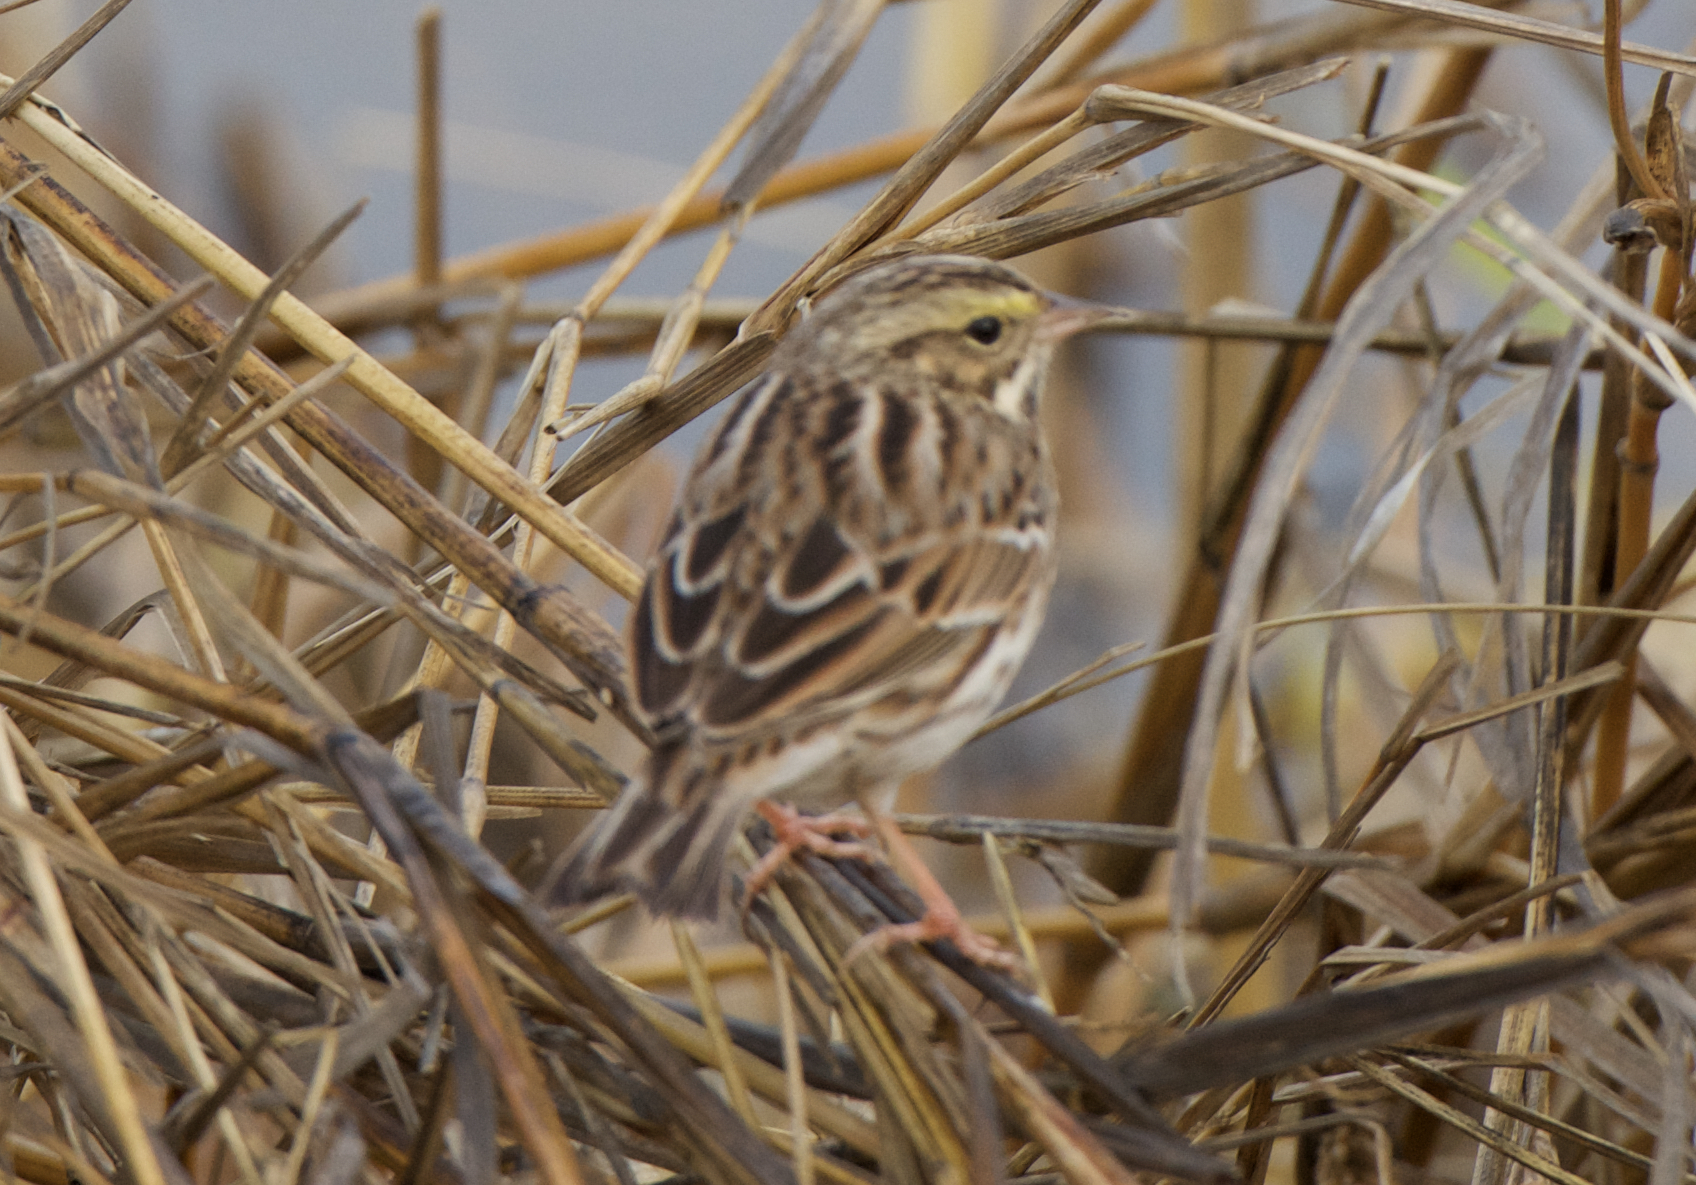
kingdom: Animalia
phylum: Chordata
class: Aves
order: Passeriformes
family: Passerellidae
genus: Passerculus
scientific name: Passerculus sandwichensis
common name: Savannah sparrow
